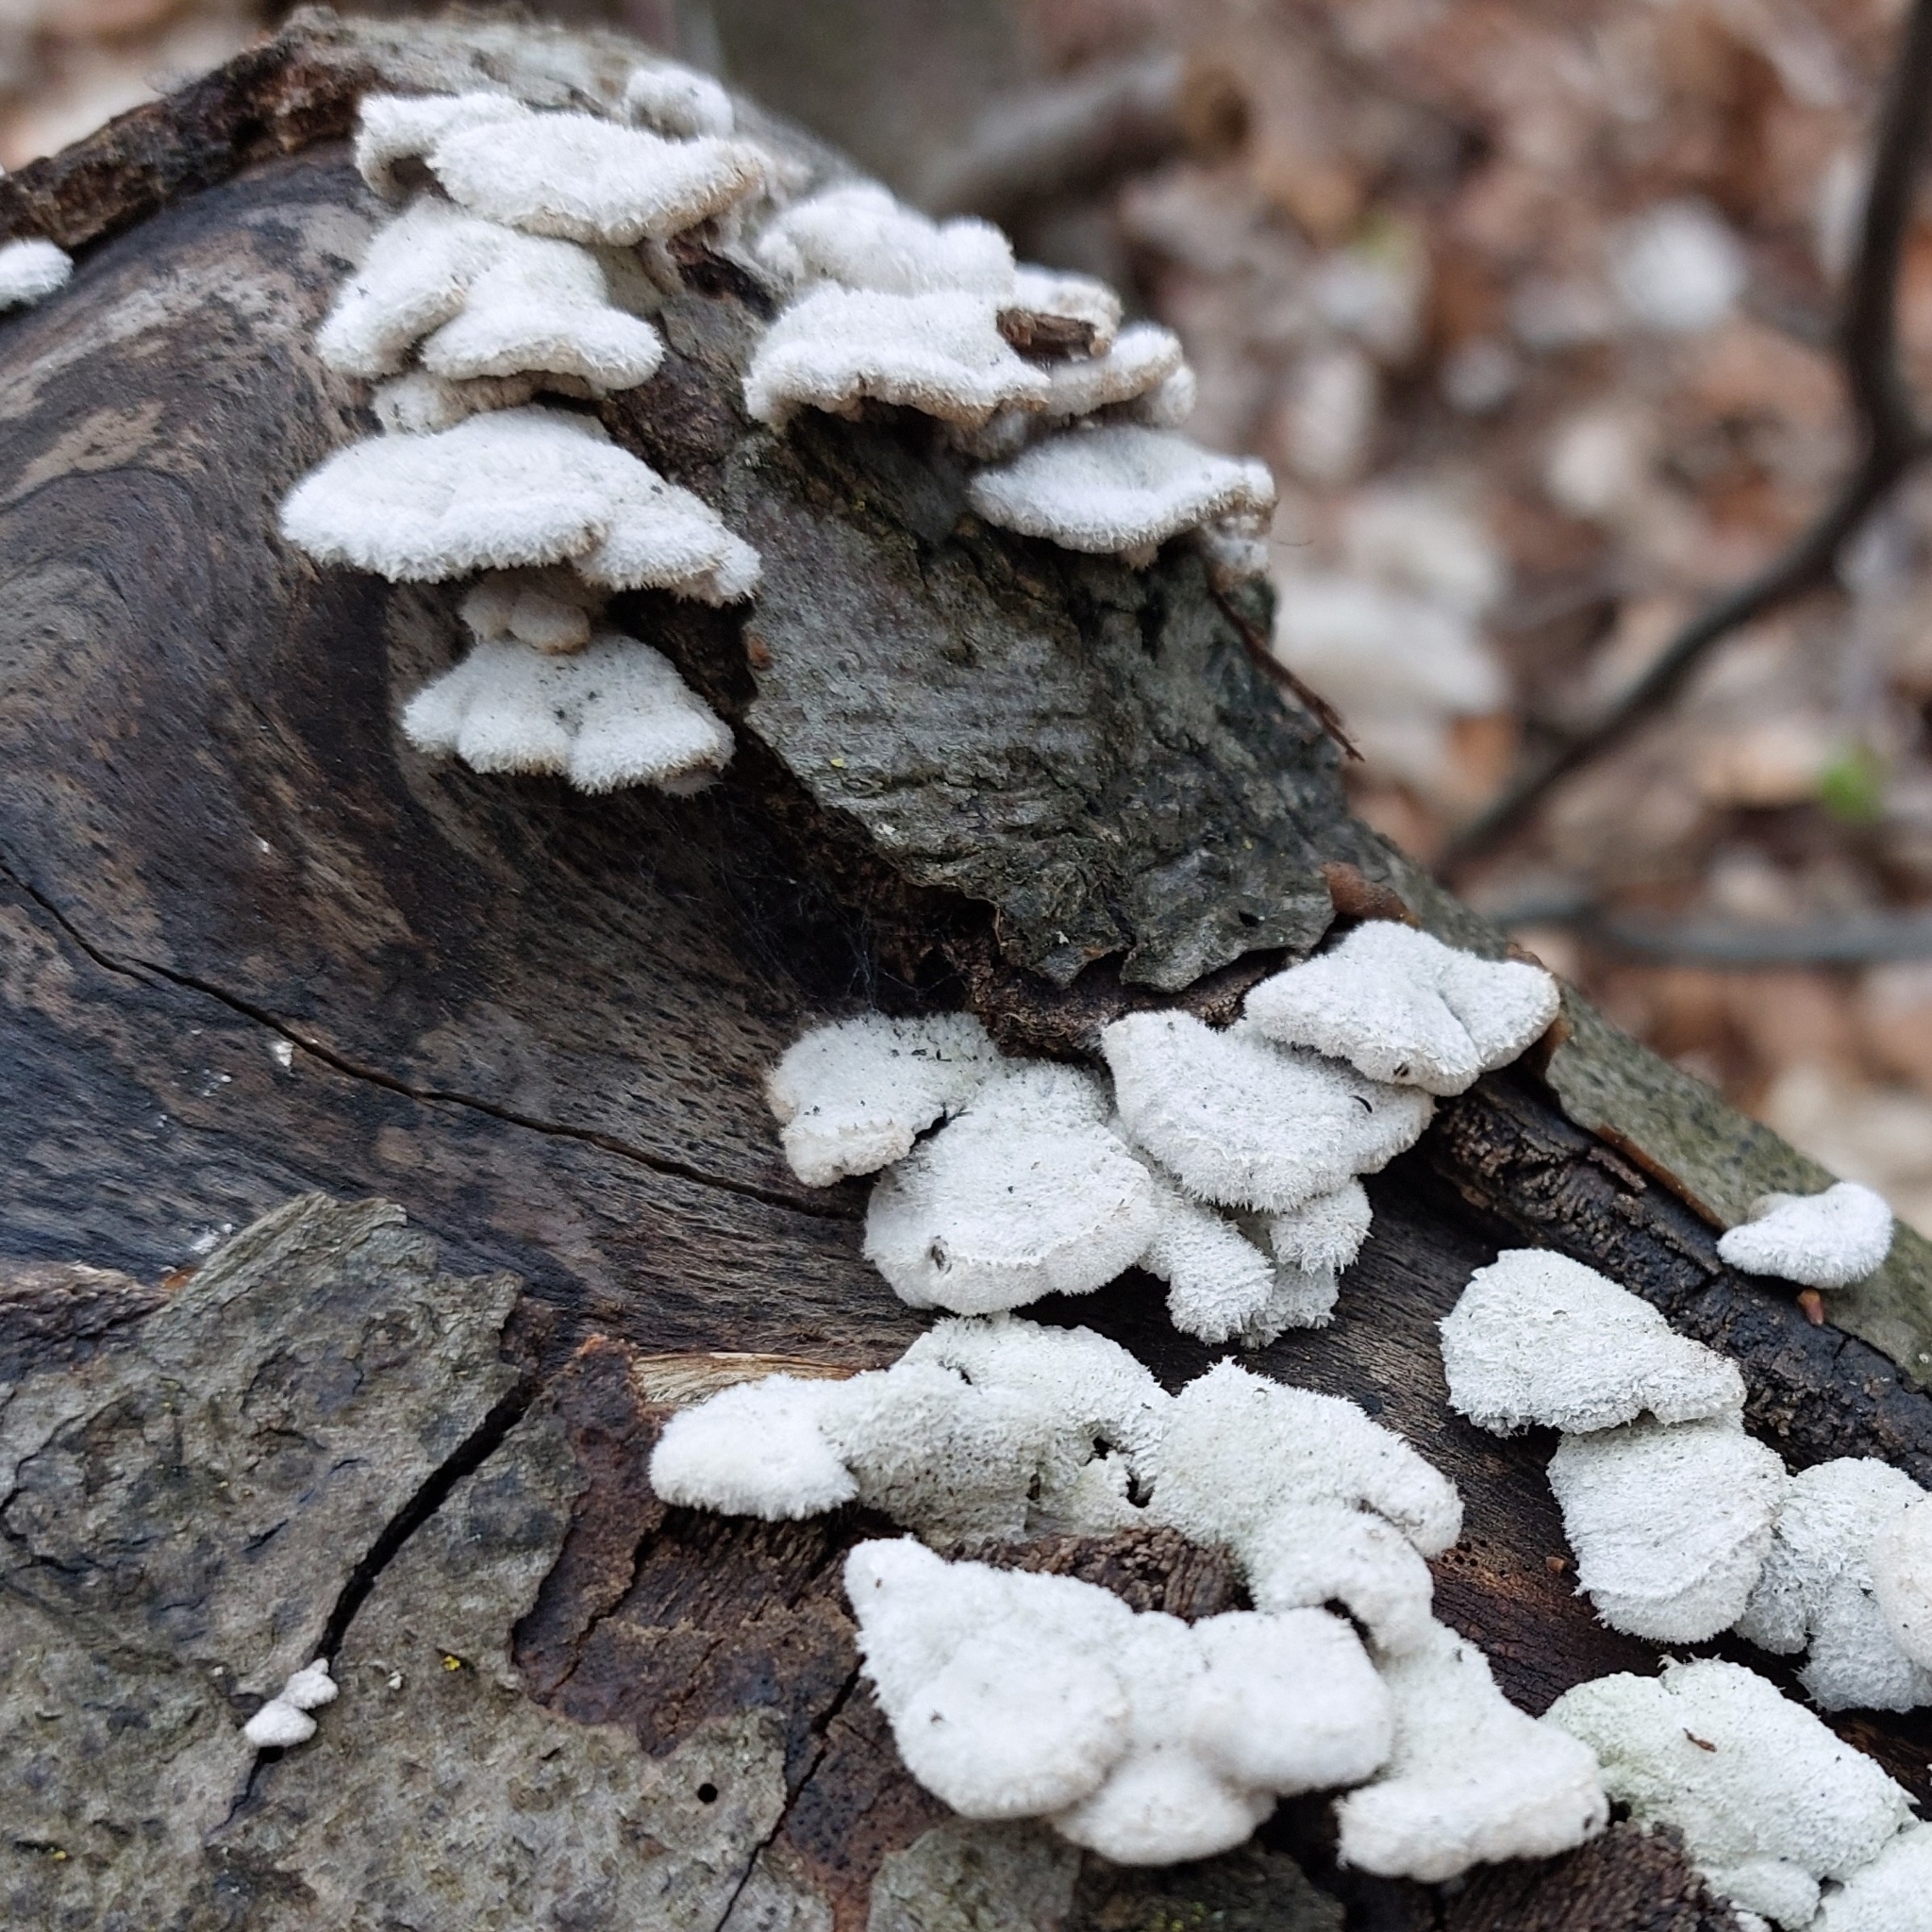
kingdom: Fungi
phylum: Basidiomycota
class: Agaricomycetes
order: Agaricales
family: Schizophyllaceae
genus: Schizophyllum
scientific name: Schizophyllum commune
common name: Common porecrust
